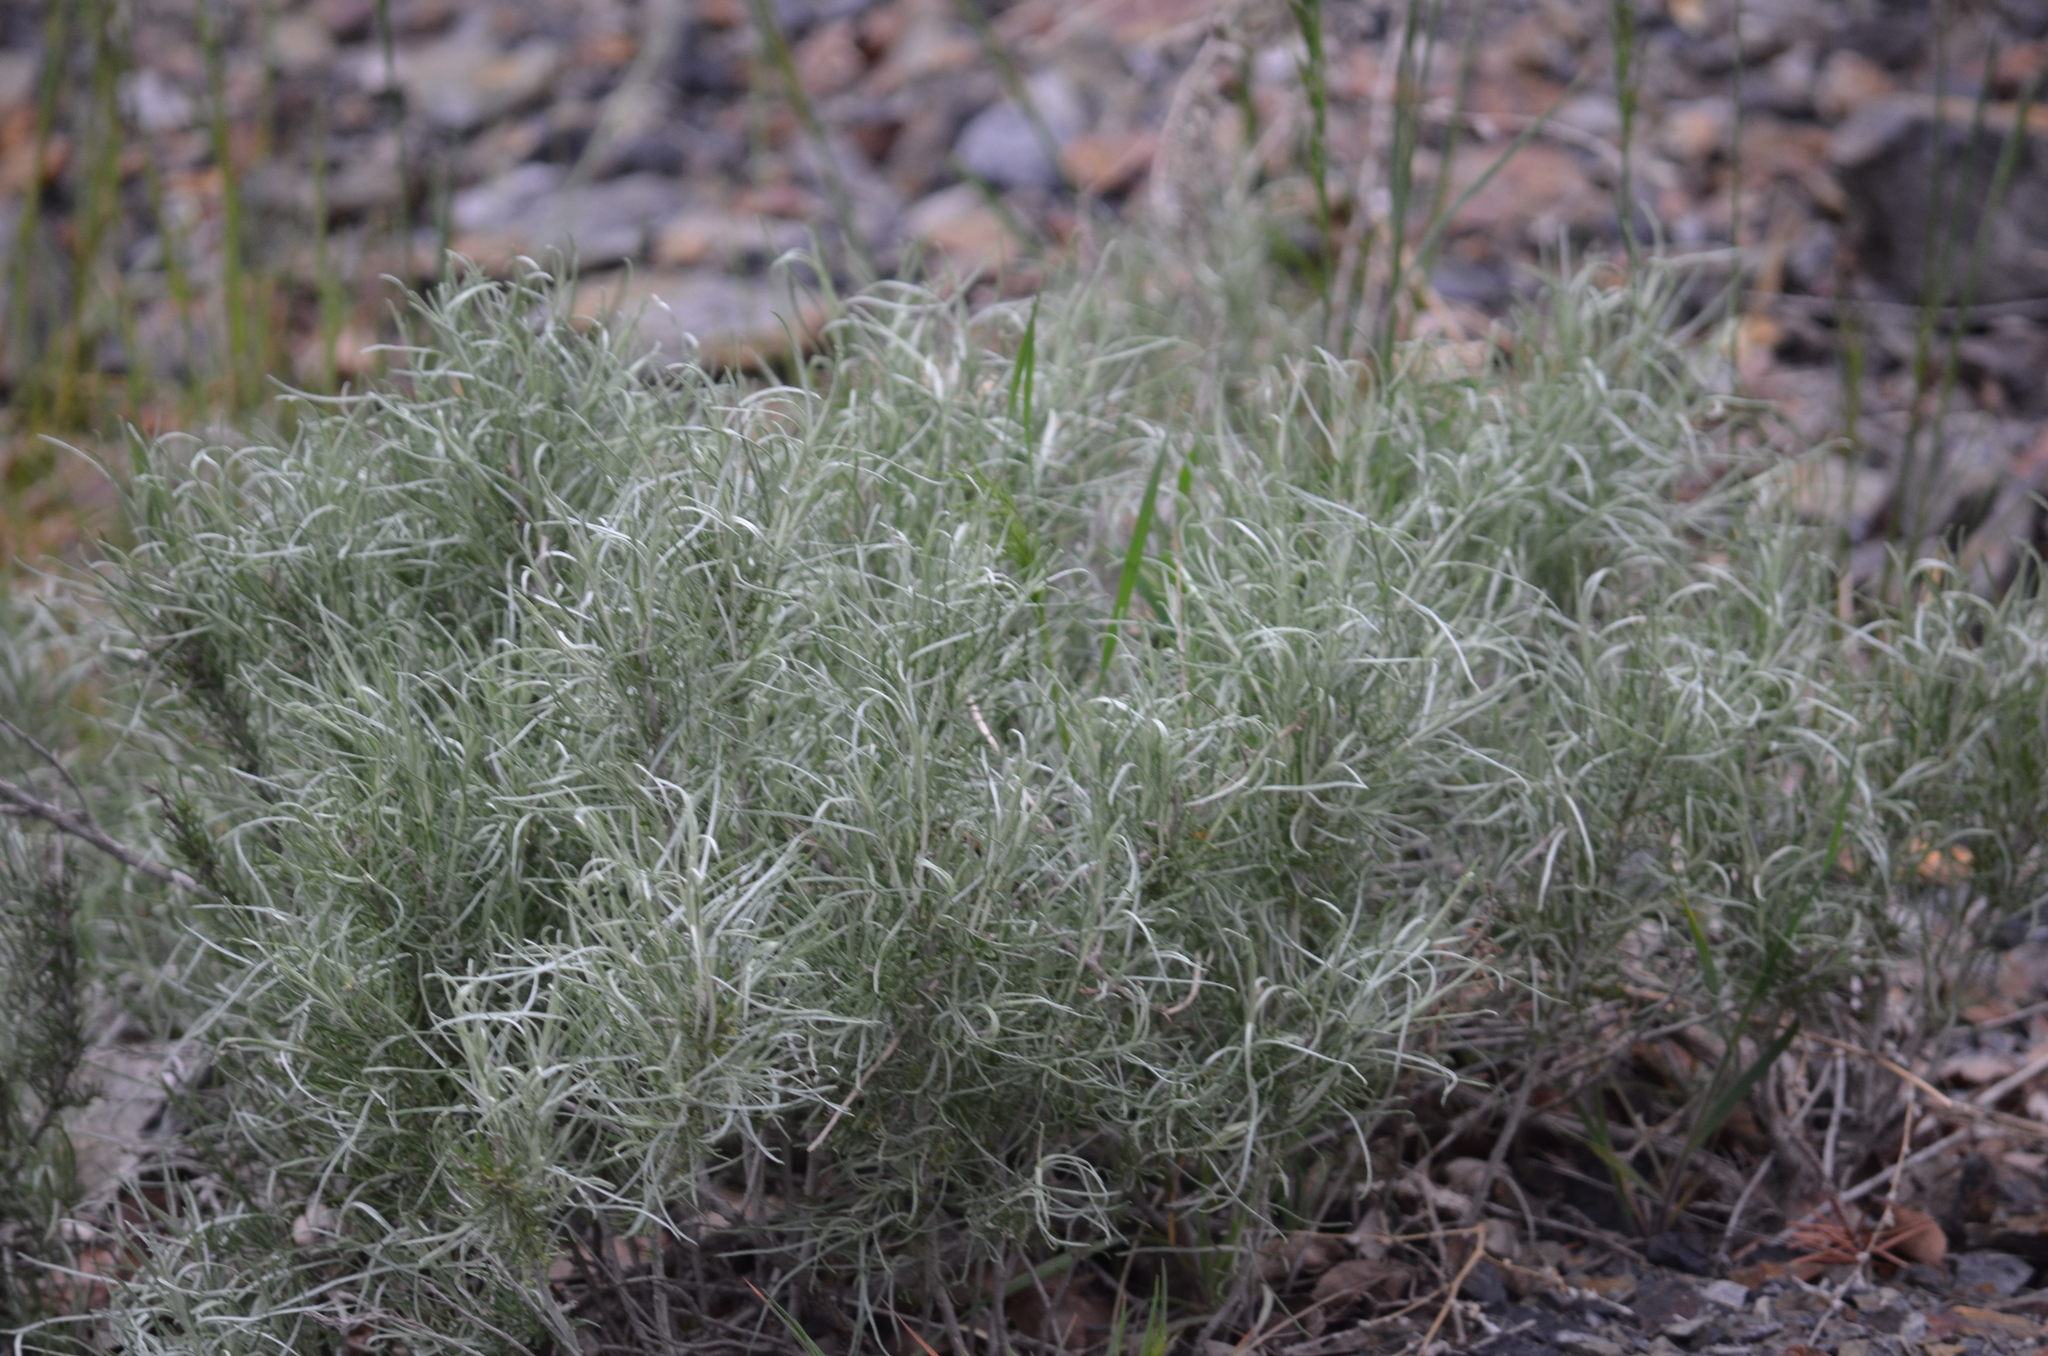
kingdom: Plantae
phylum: Tracheophyta
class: Magnoliopsida
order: Asterales
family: Asteraceae
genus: Ericameria
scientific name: Ericameria nauseosa
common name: Rubber rabbitbrush
